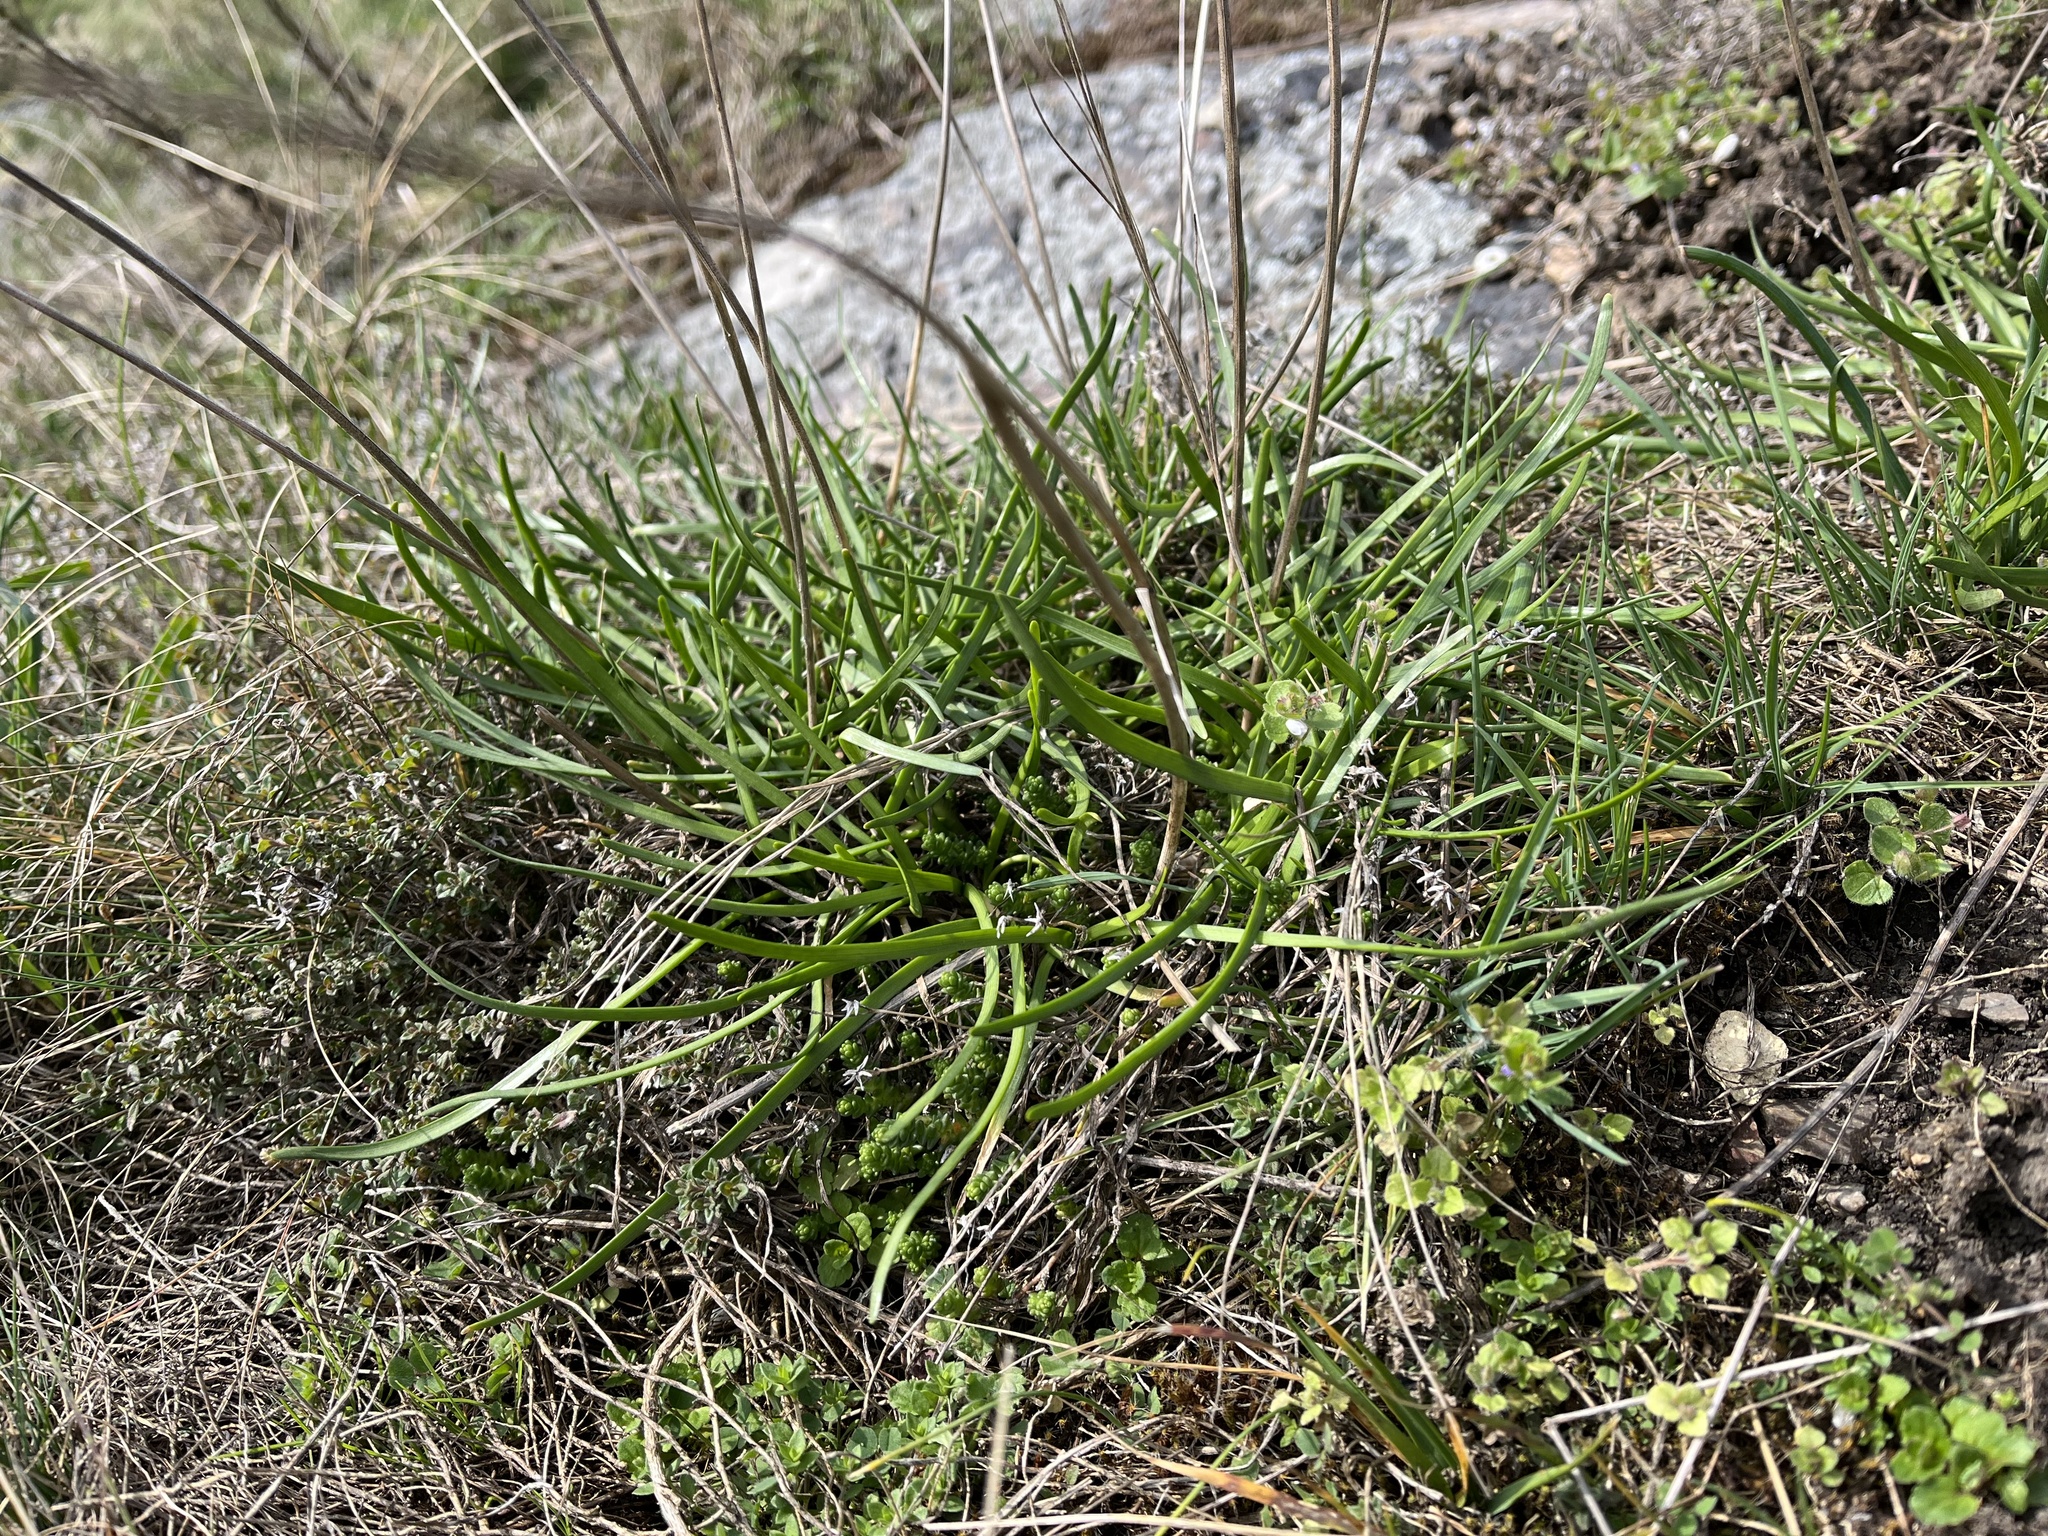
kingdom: Plantae
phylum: Tracheophyta
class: Liliopsida
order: Asparagales
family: Amaryllidaceae
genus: Allium
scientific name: Allium lusitanicum
